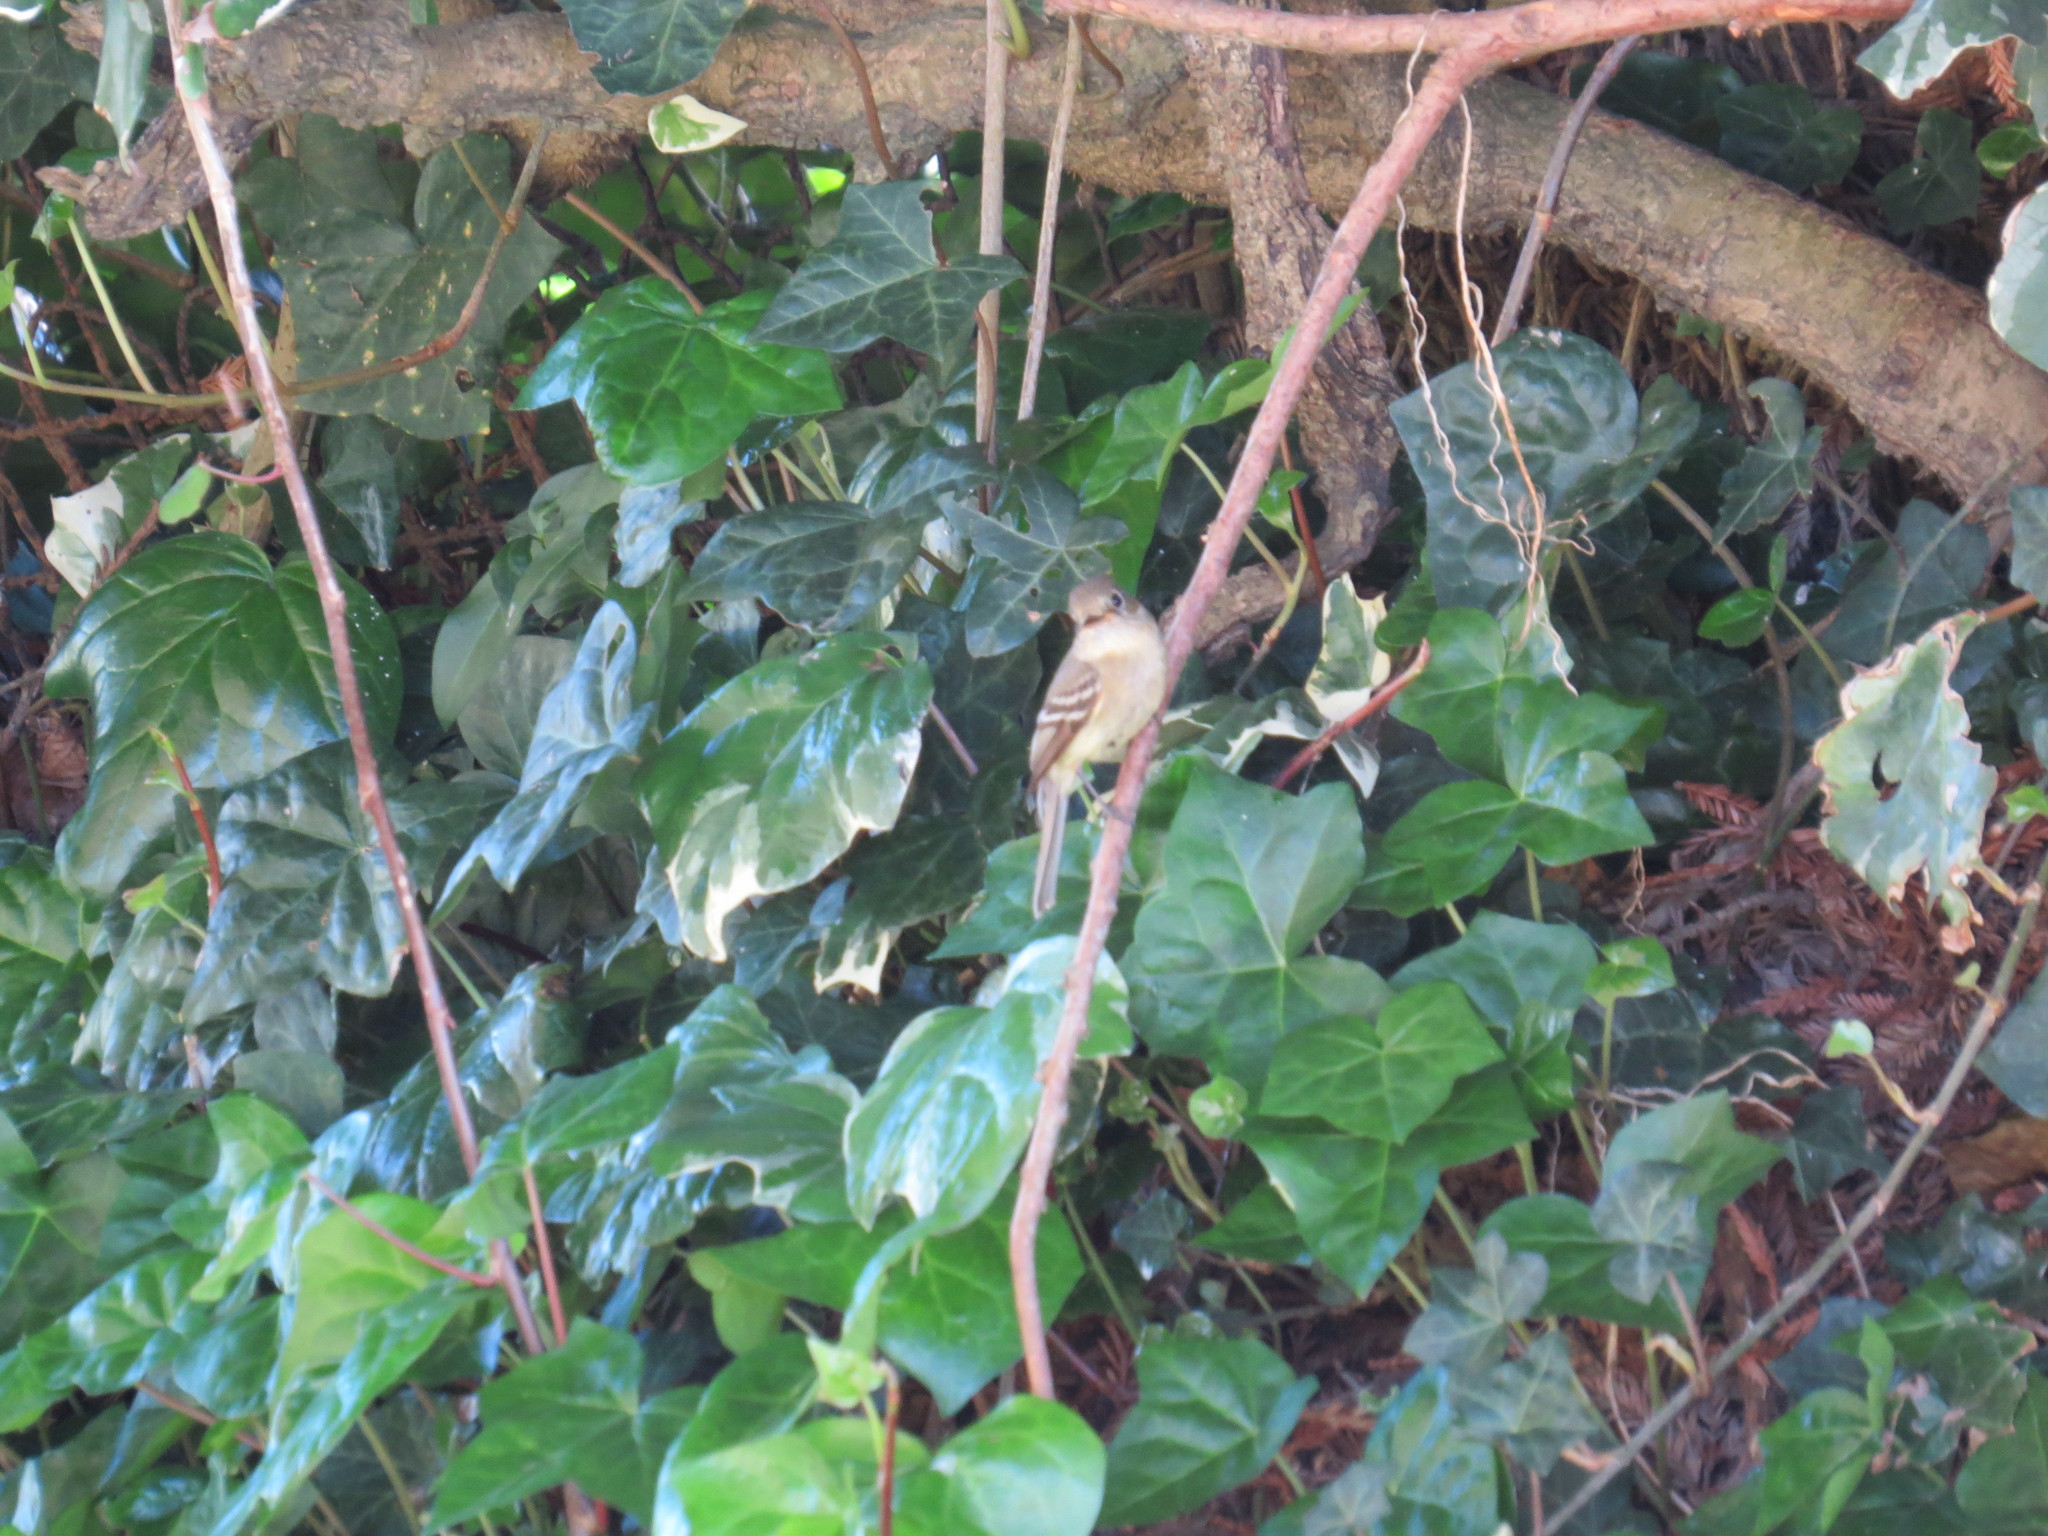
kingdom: Animalia
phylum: Chordata
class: Aves
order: Passeriformes
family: Tyrannidae
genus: Empidonax
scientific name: Empidonax difficilis
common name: Pacific-slope flycatcher
